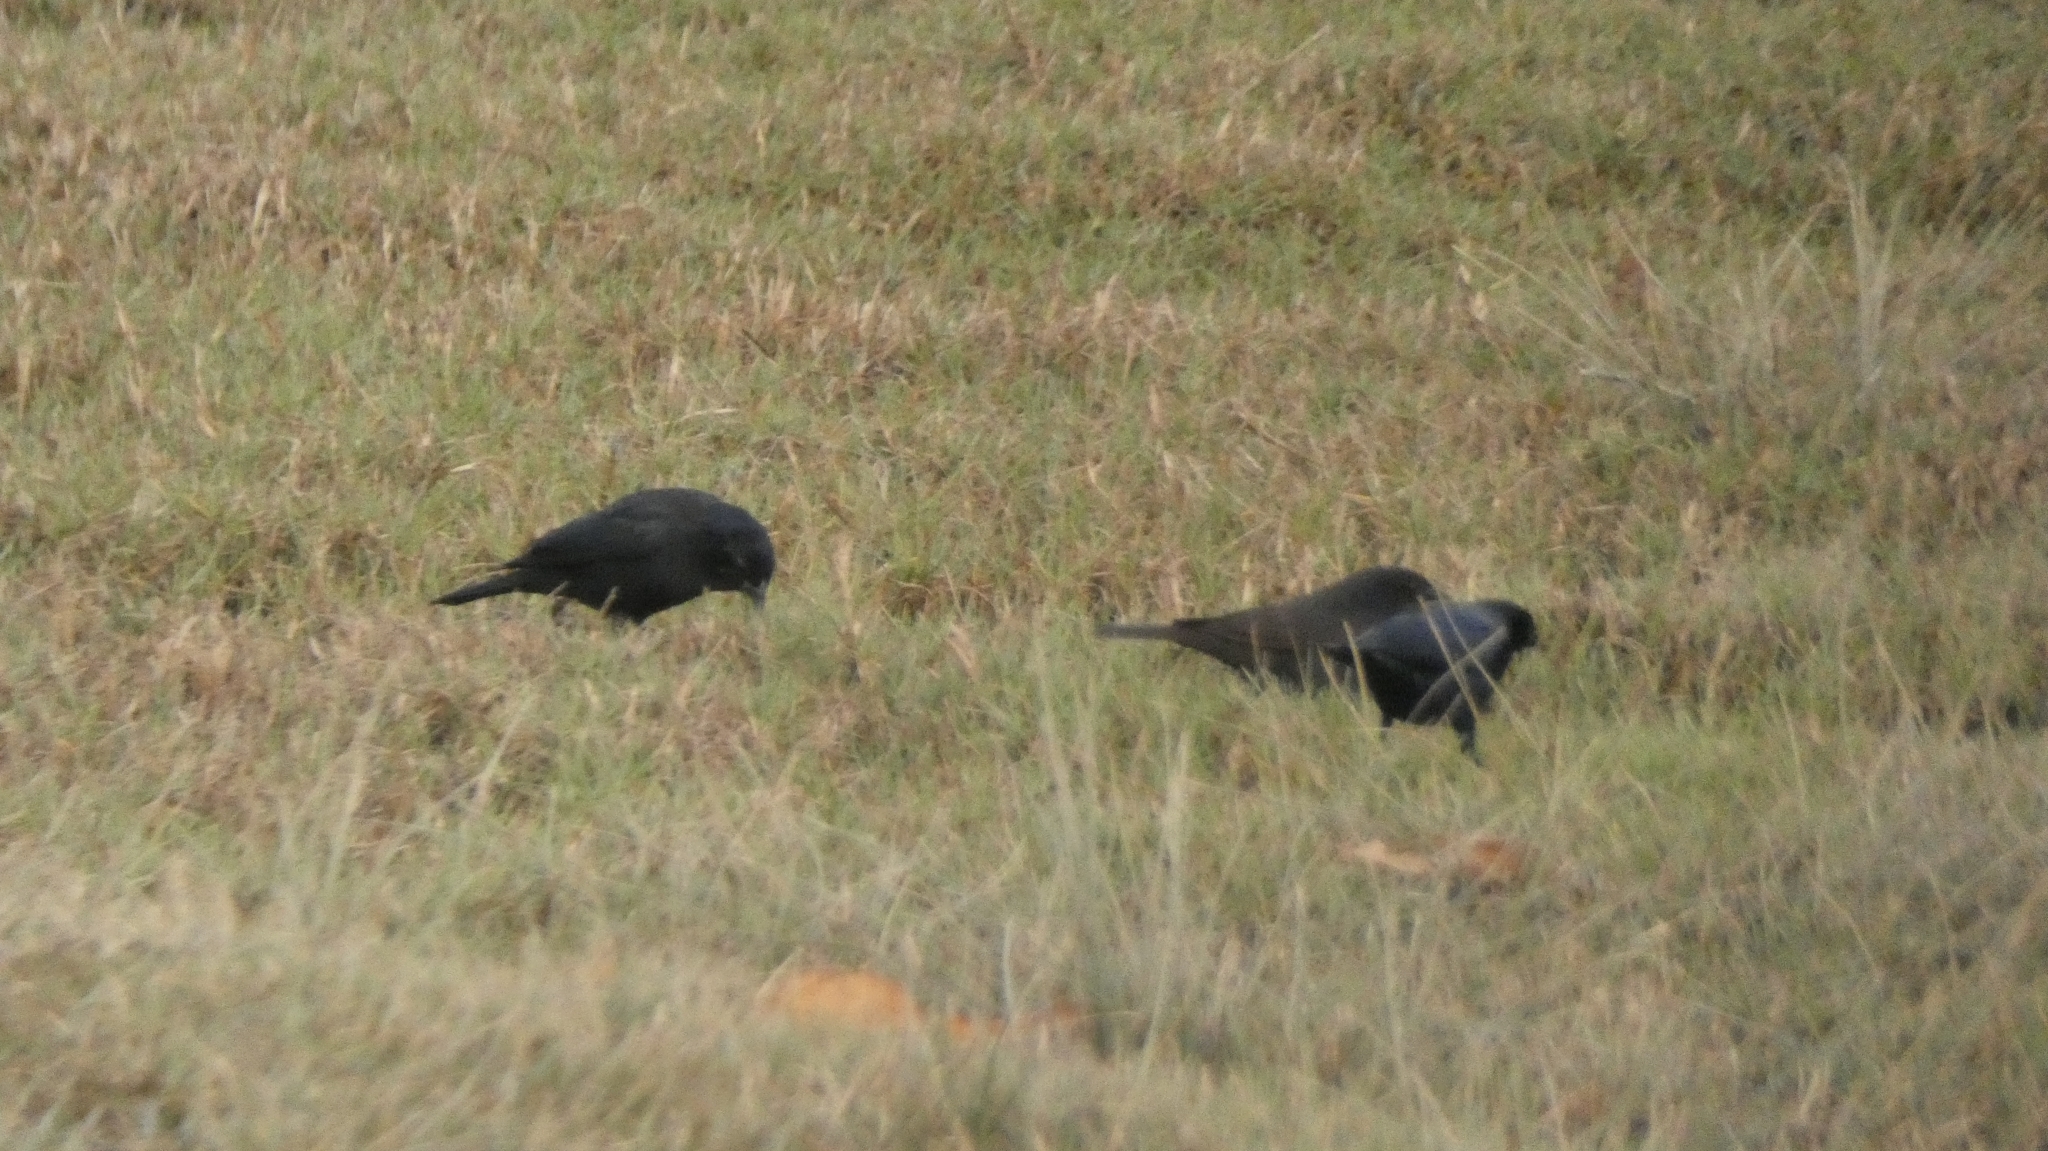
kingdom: Animalia
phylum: Chordata
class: Aves
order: Passeriformes
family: Icteridae
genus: Molothrus
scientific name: Molothrus bonariensis
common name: Shiny cowbird
